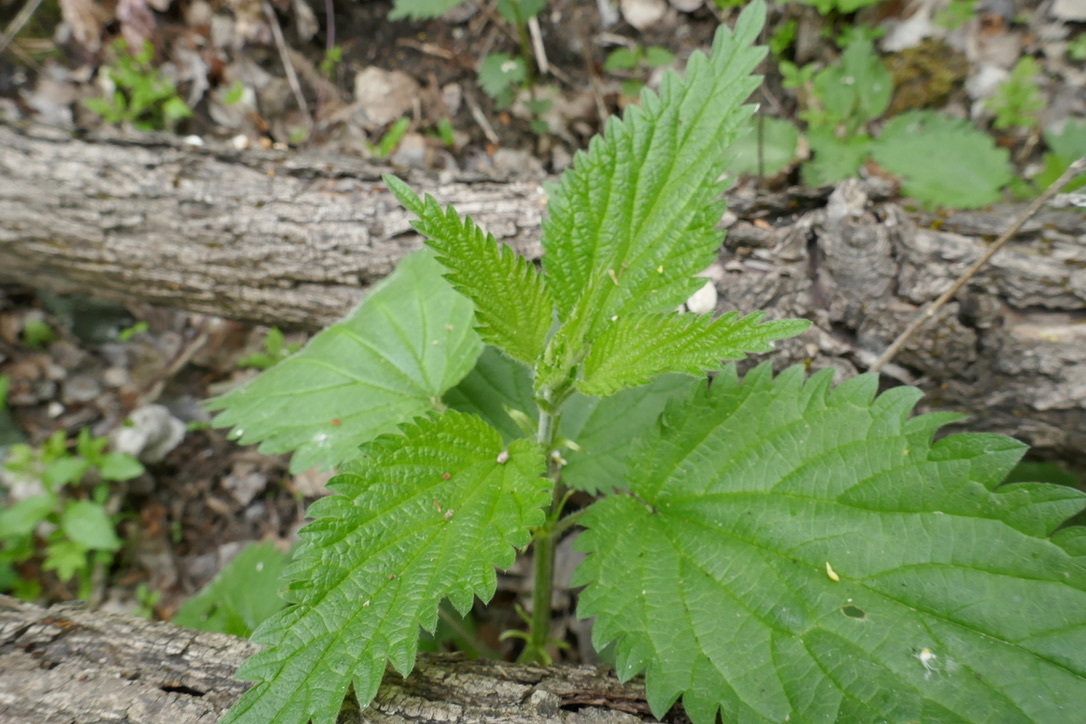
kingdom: Plantae
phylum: Tracheophyta
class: Magnoliopsida
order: Rosales
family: Urticaceae
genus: Urtica
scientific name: Urtica dioica
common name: Common nettle
